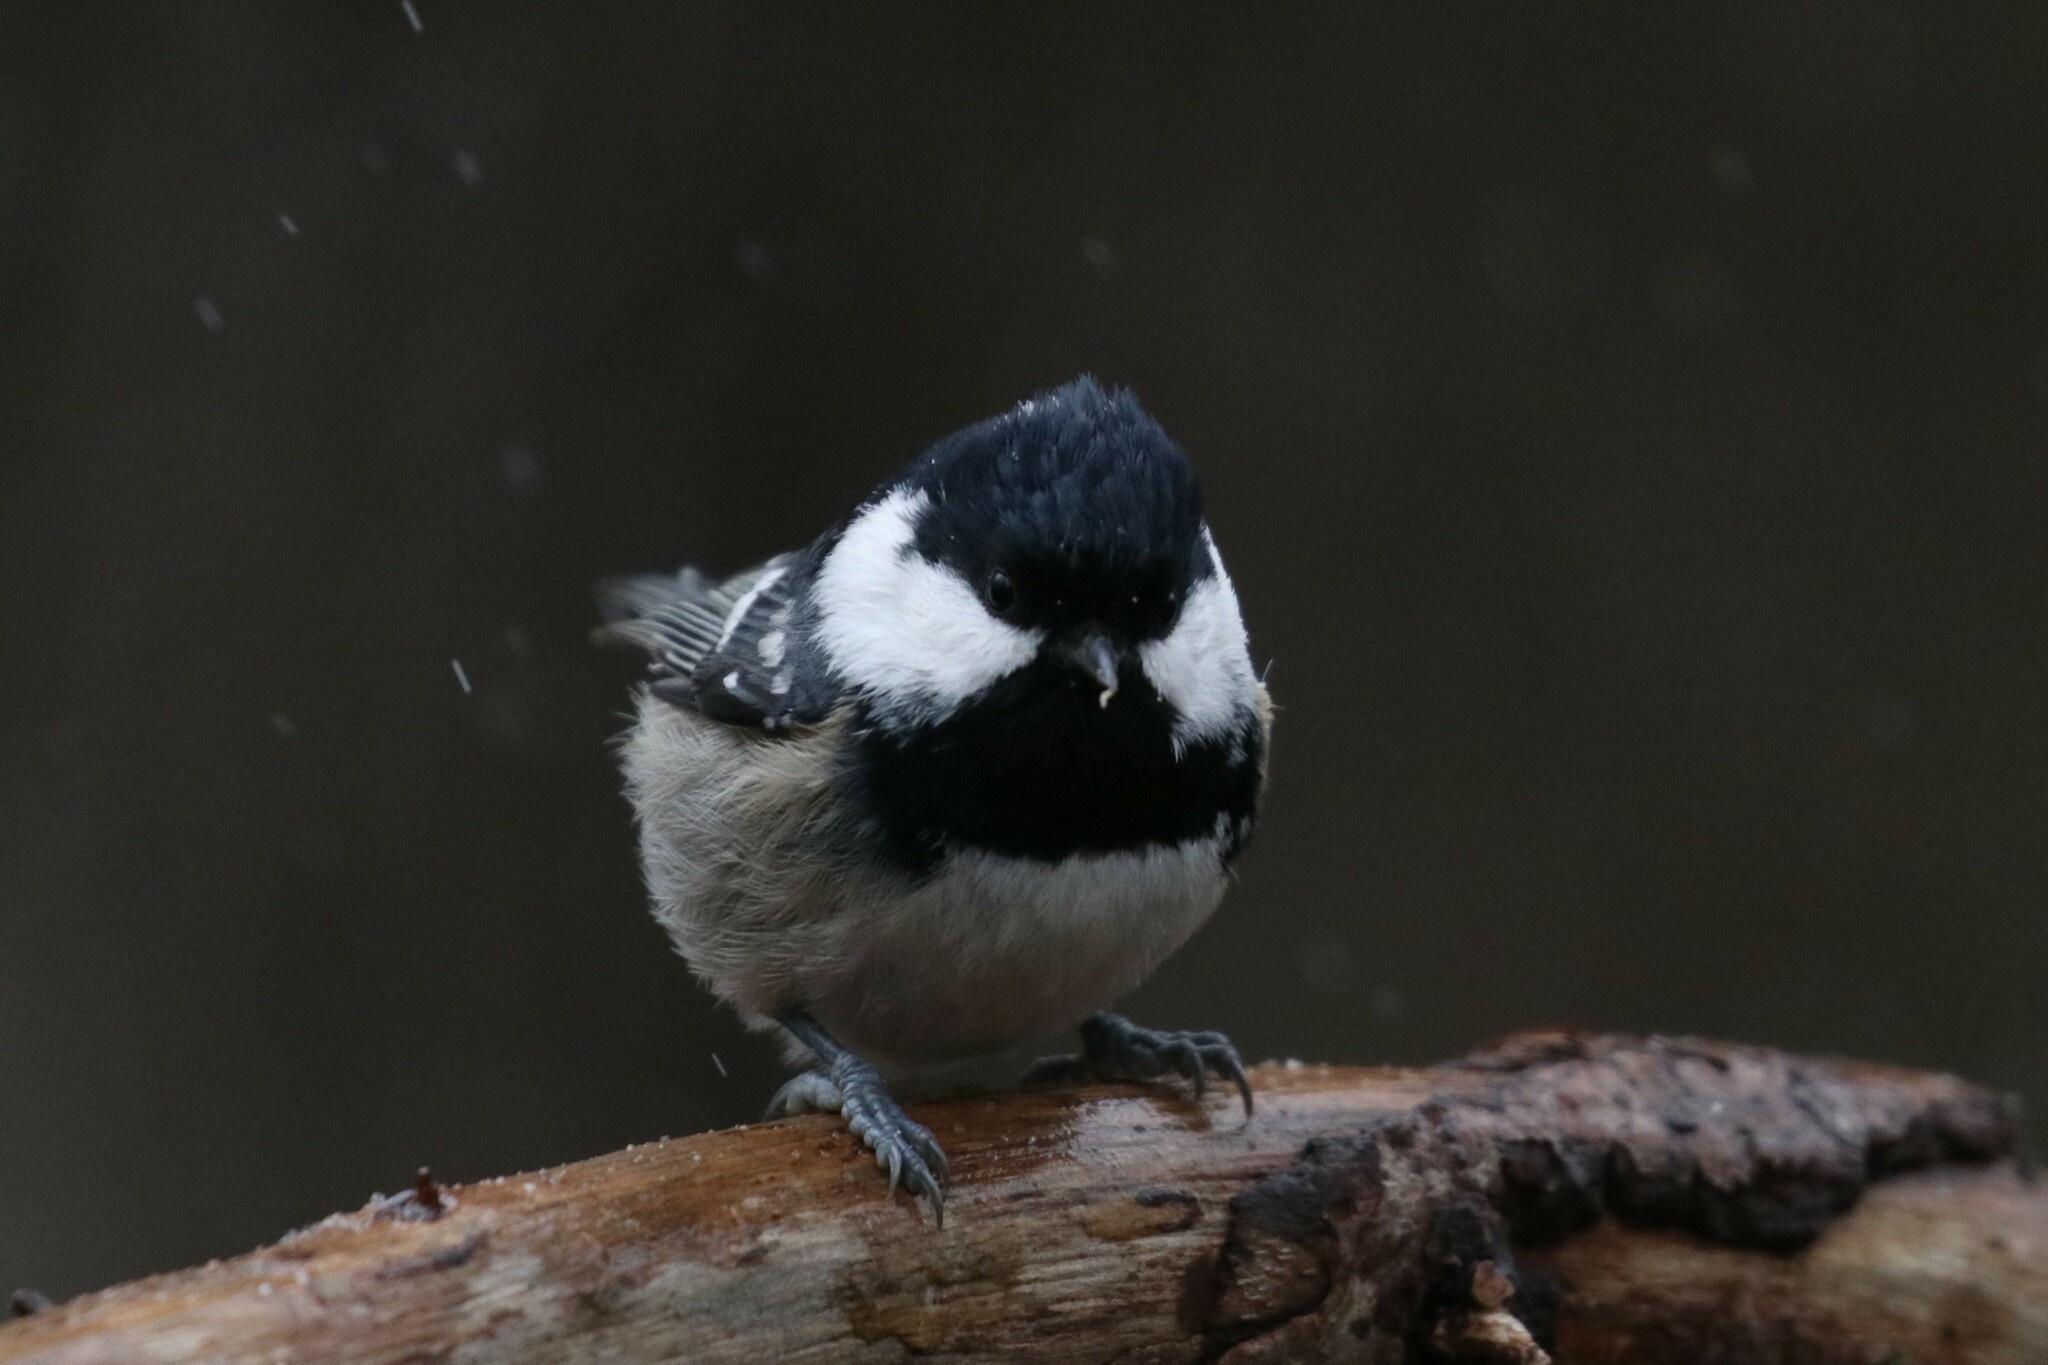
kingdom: Animalia
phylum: Chordata
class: Aves
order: Passeriformes
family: Paridae
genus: Periparus
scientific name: Periparus ater
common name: Coal tit
